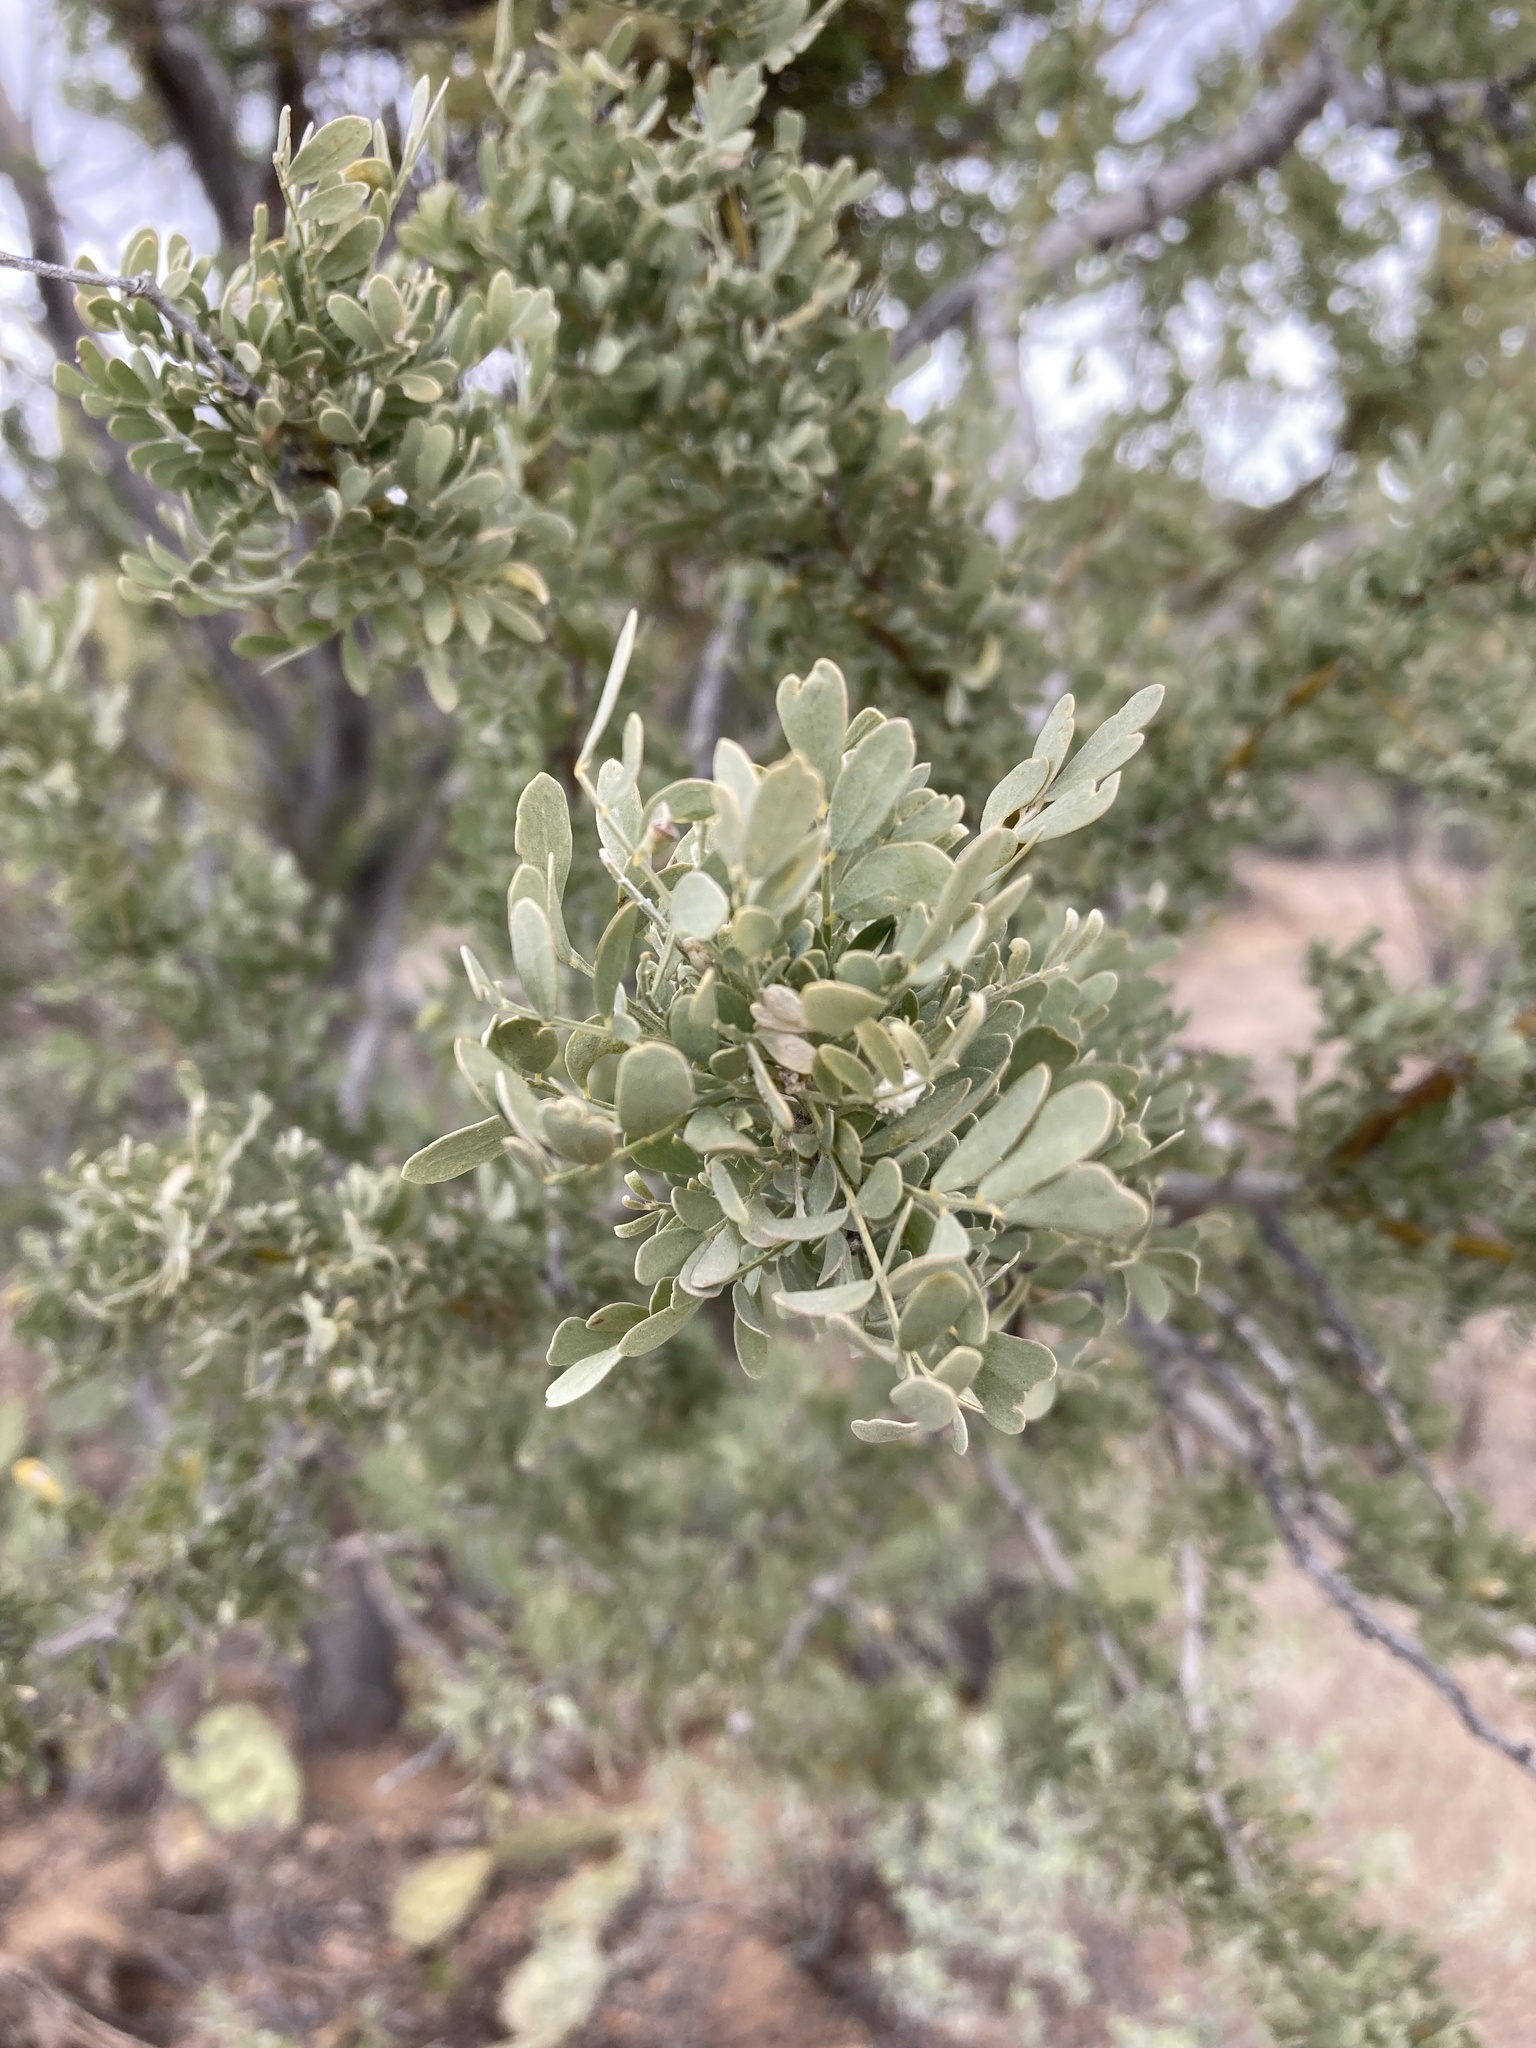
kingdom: Plantae
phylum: Tracheophyta
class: Magnoliopsida
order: Fabales
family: Fabaceae
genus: Olneya
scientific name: Olneya tesota
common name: Desert ironwood
